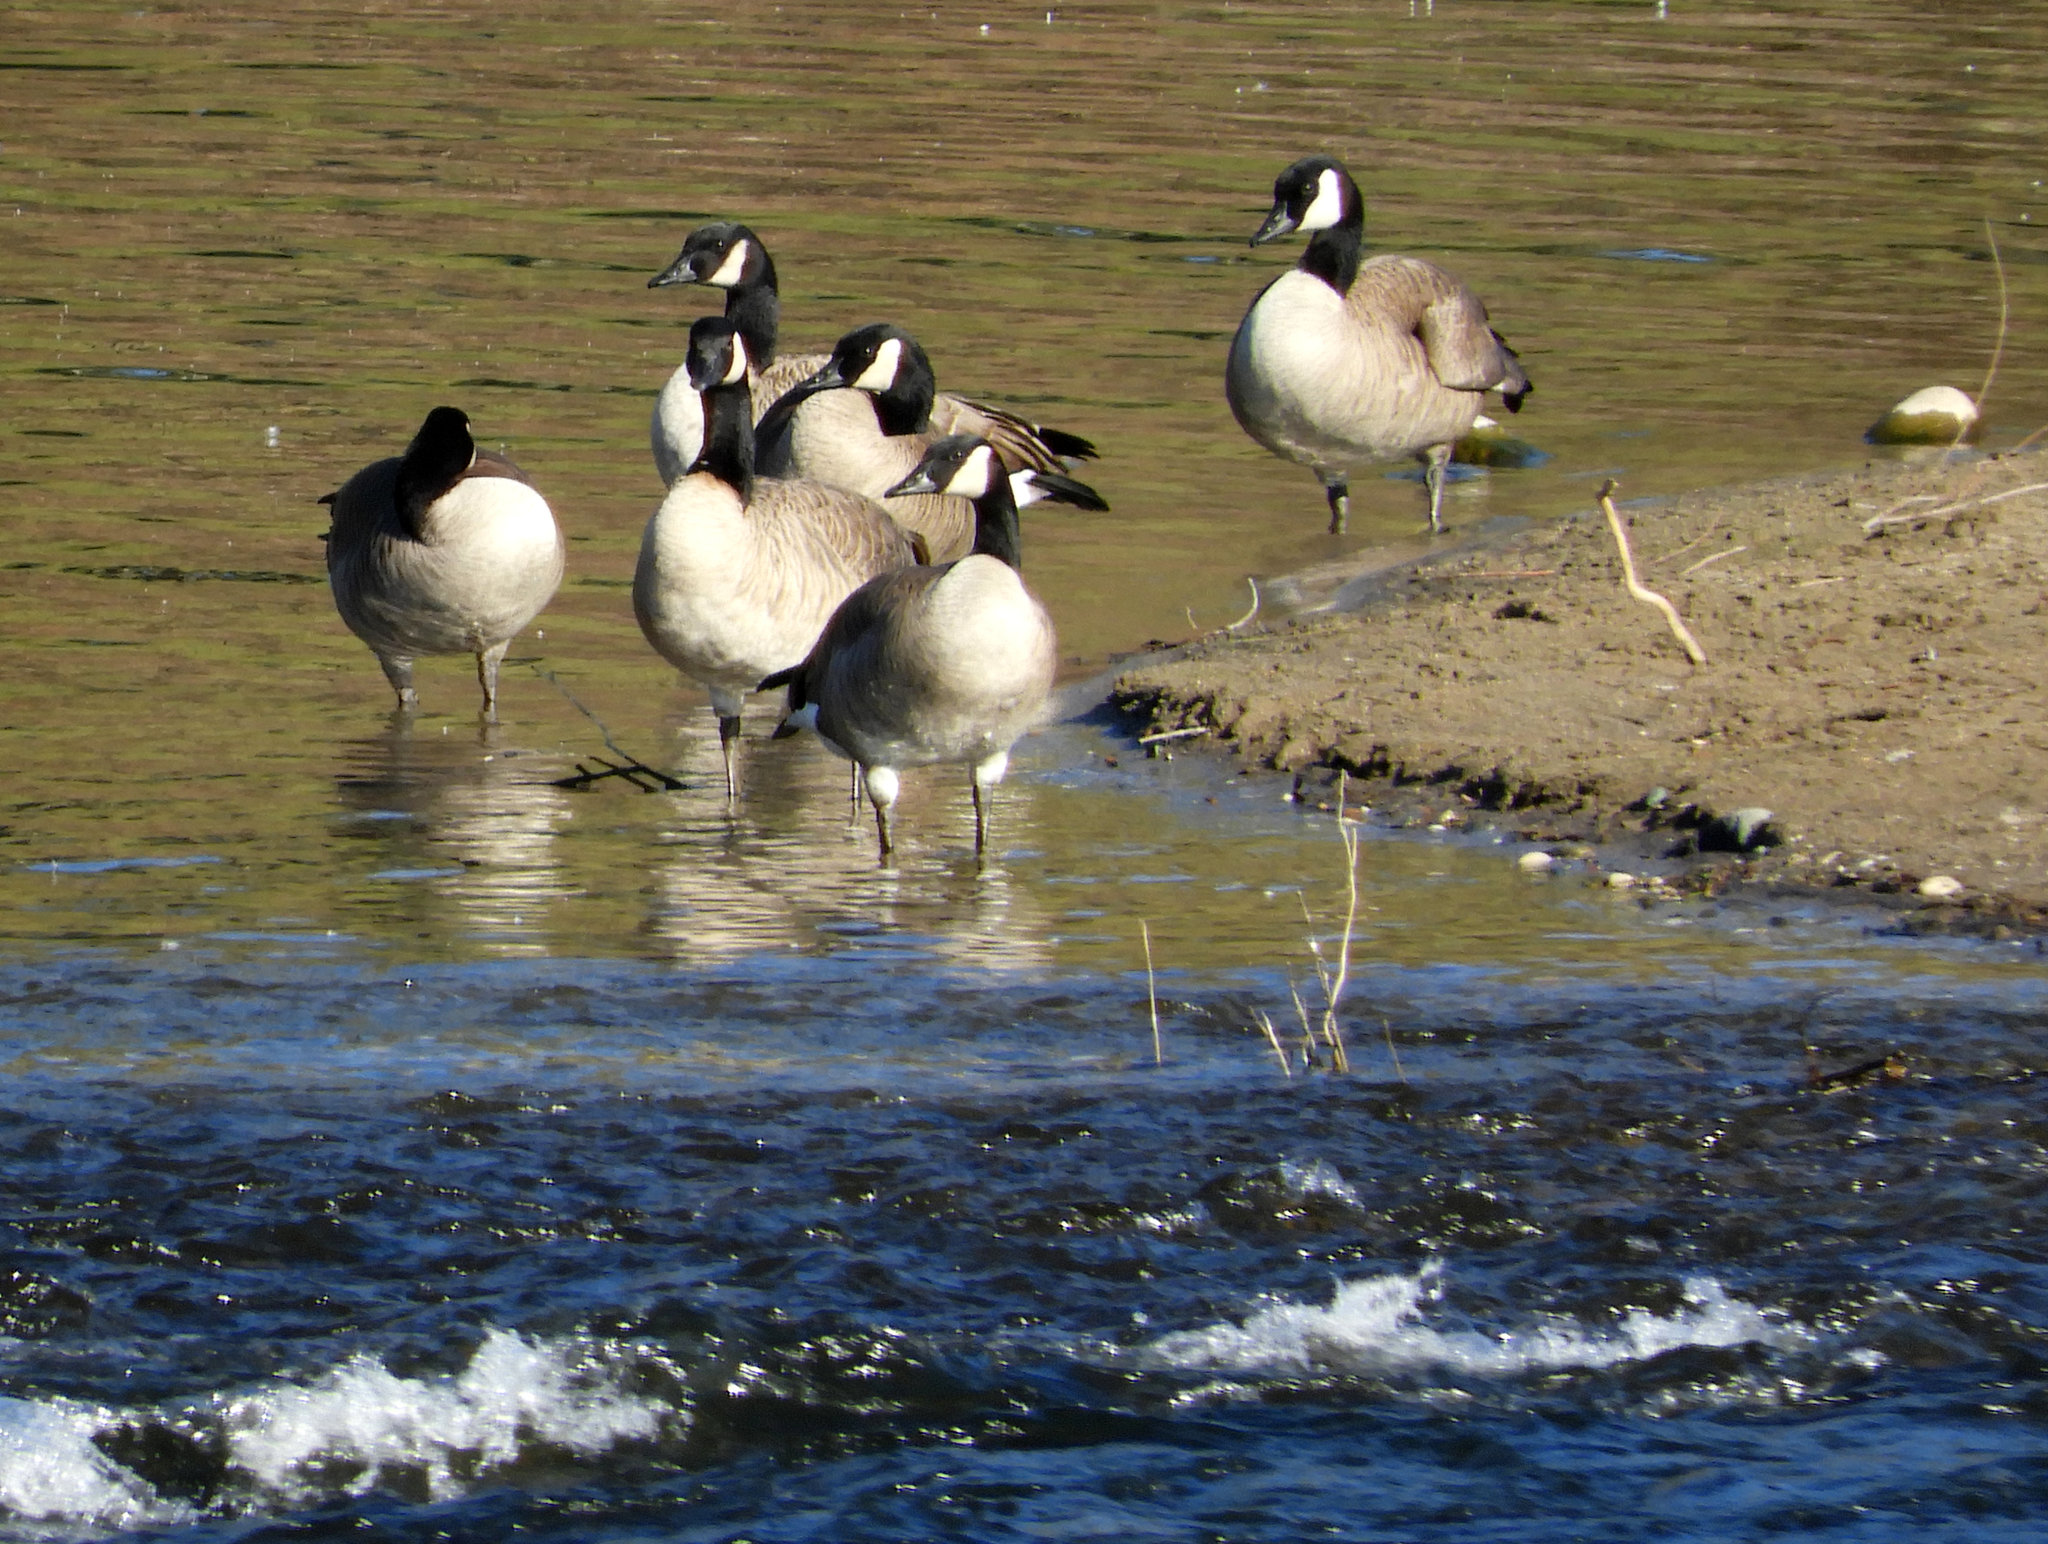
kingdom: Animalia
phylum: Chordata
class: Aves
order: Anseriformes
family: Anatidae
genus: Branta
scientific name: Branta canadensis
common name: Canada goose
